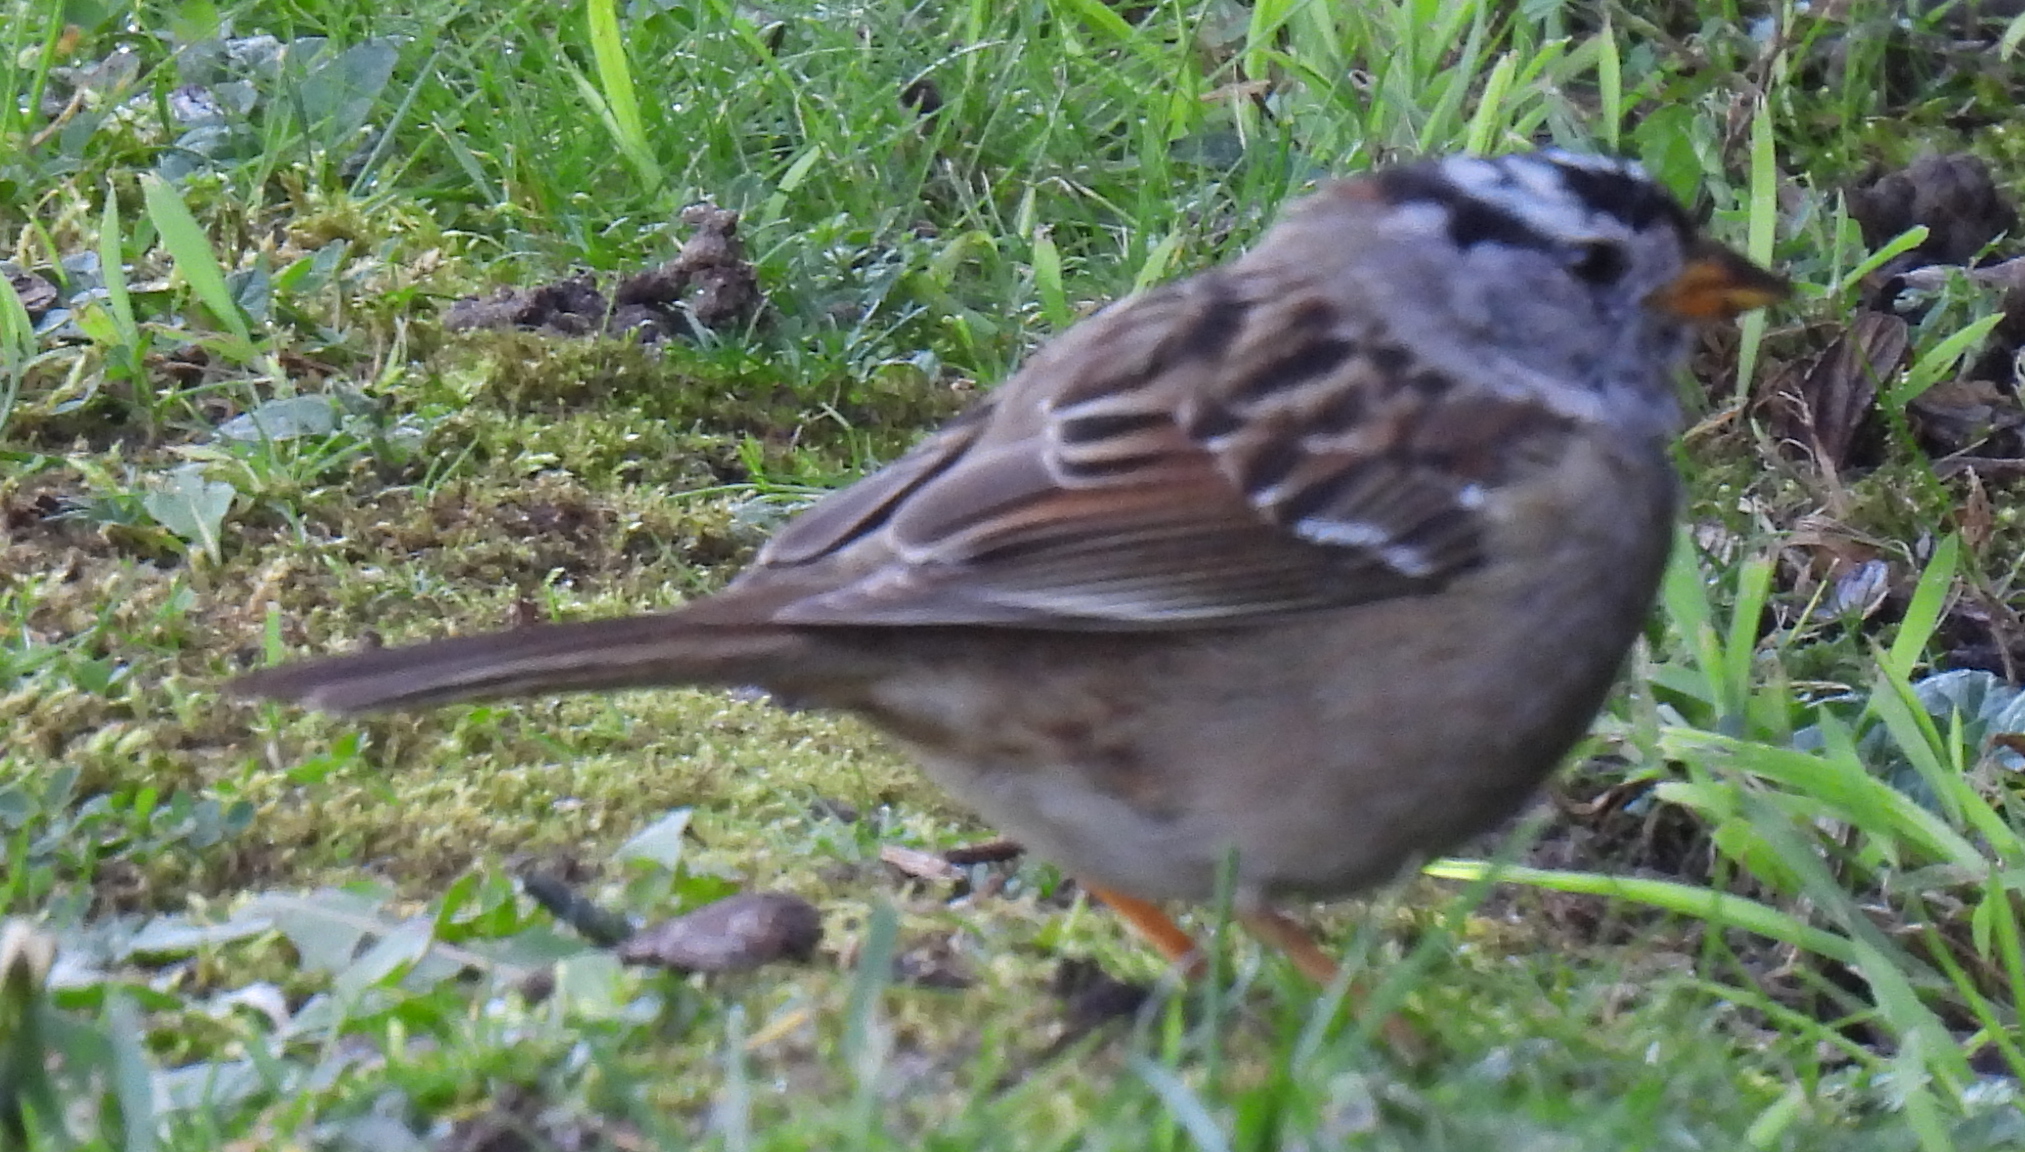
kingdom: Animalia
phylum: Chordata
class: Aves
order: Passeriformes
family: Passerellidae
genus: Zonotrichia
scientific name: Zonotrichia leucophrys
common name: White-crowned sparrow
